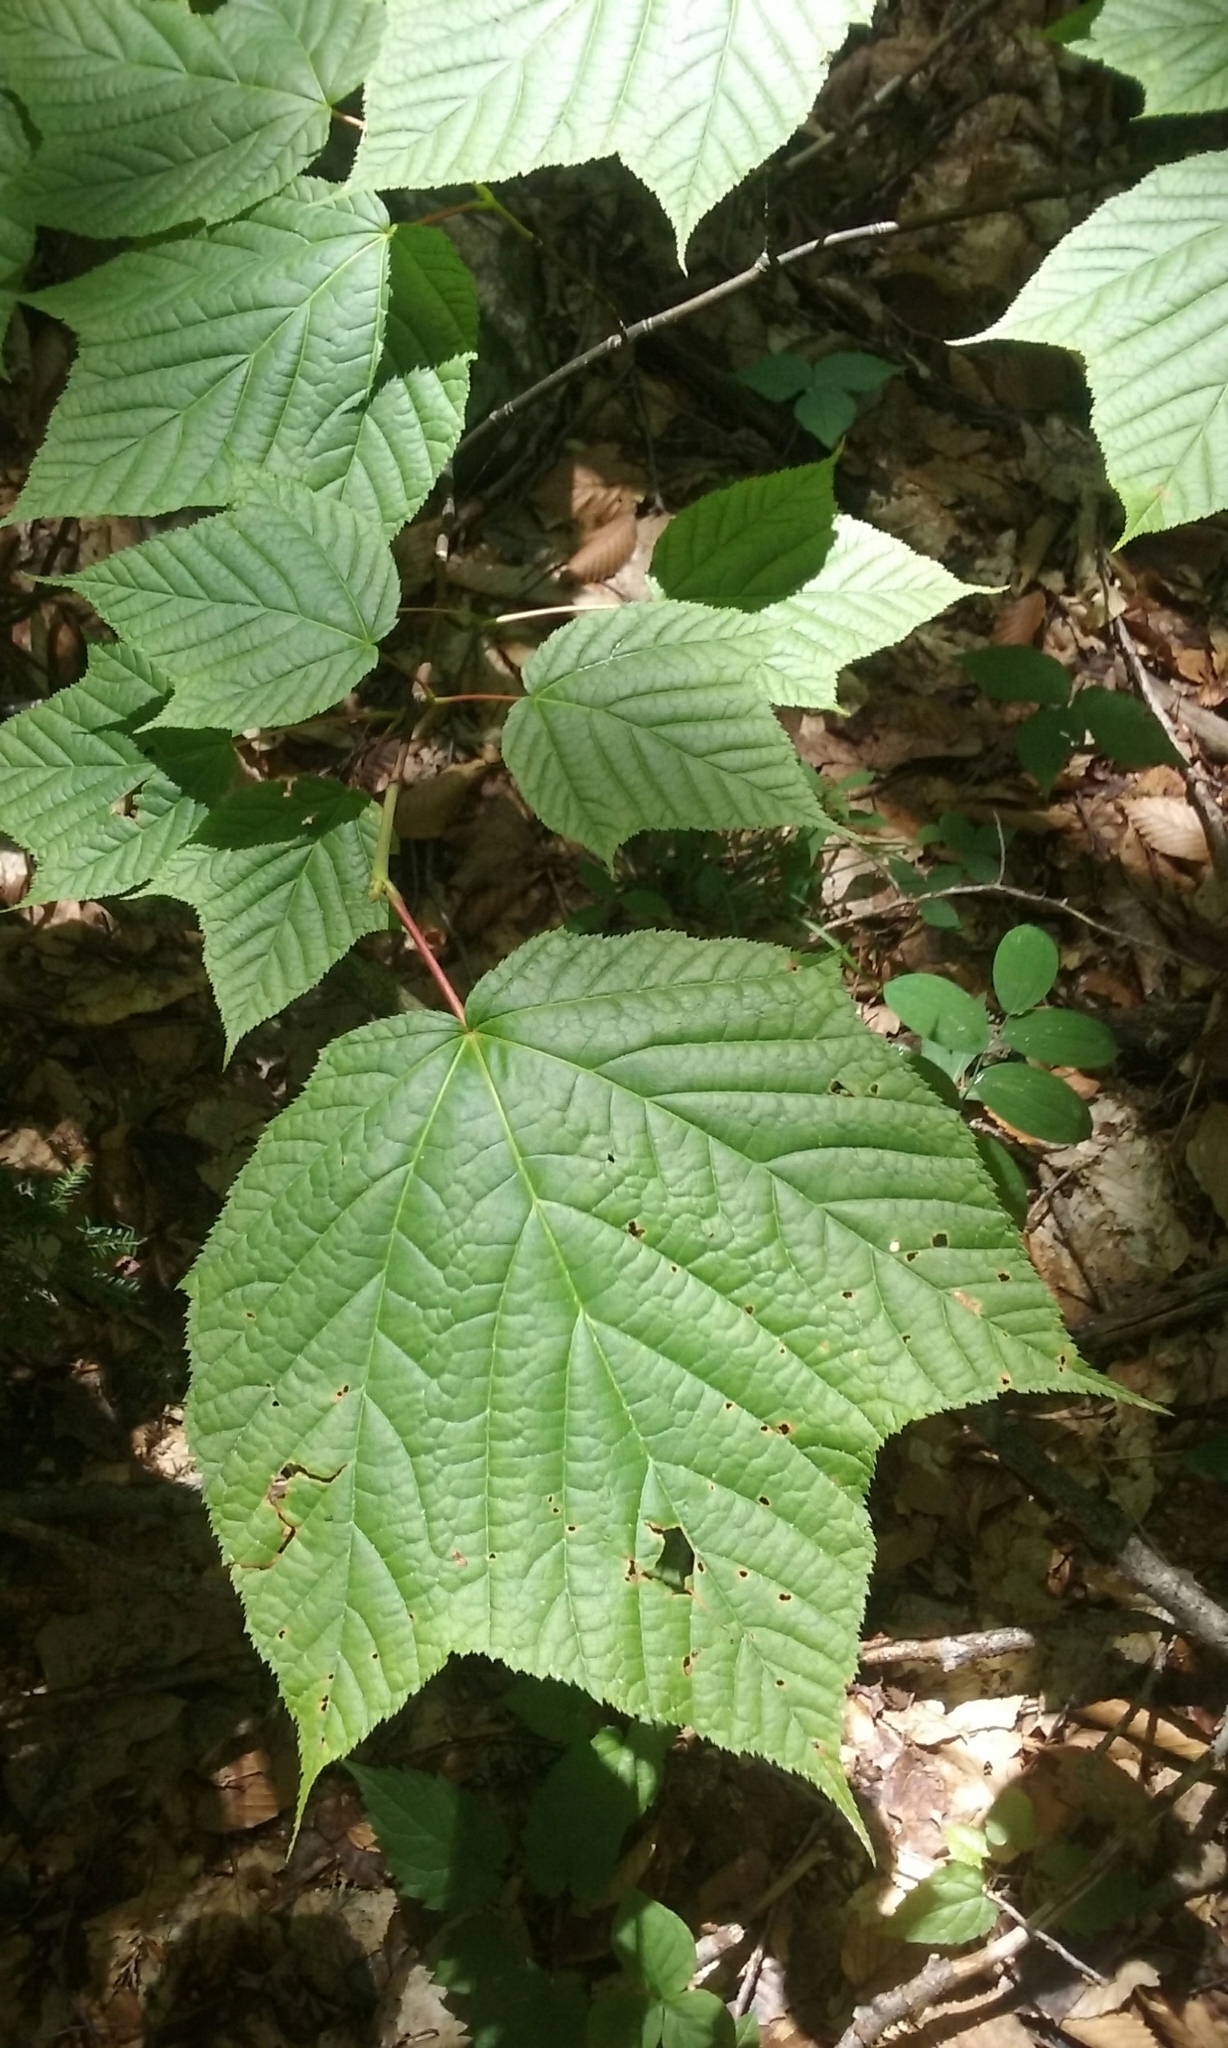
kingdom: Plantae
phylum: Tracheophyta
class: Magnoliopsida
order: Sapindales
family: Sapindaceae
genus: Acer
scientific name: Acer pensylvanicum
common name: Moosewood
